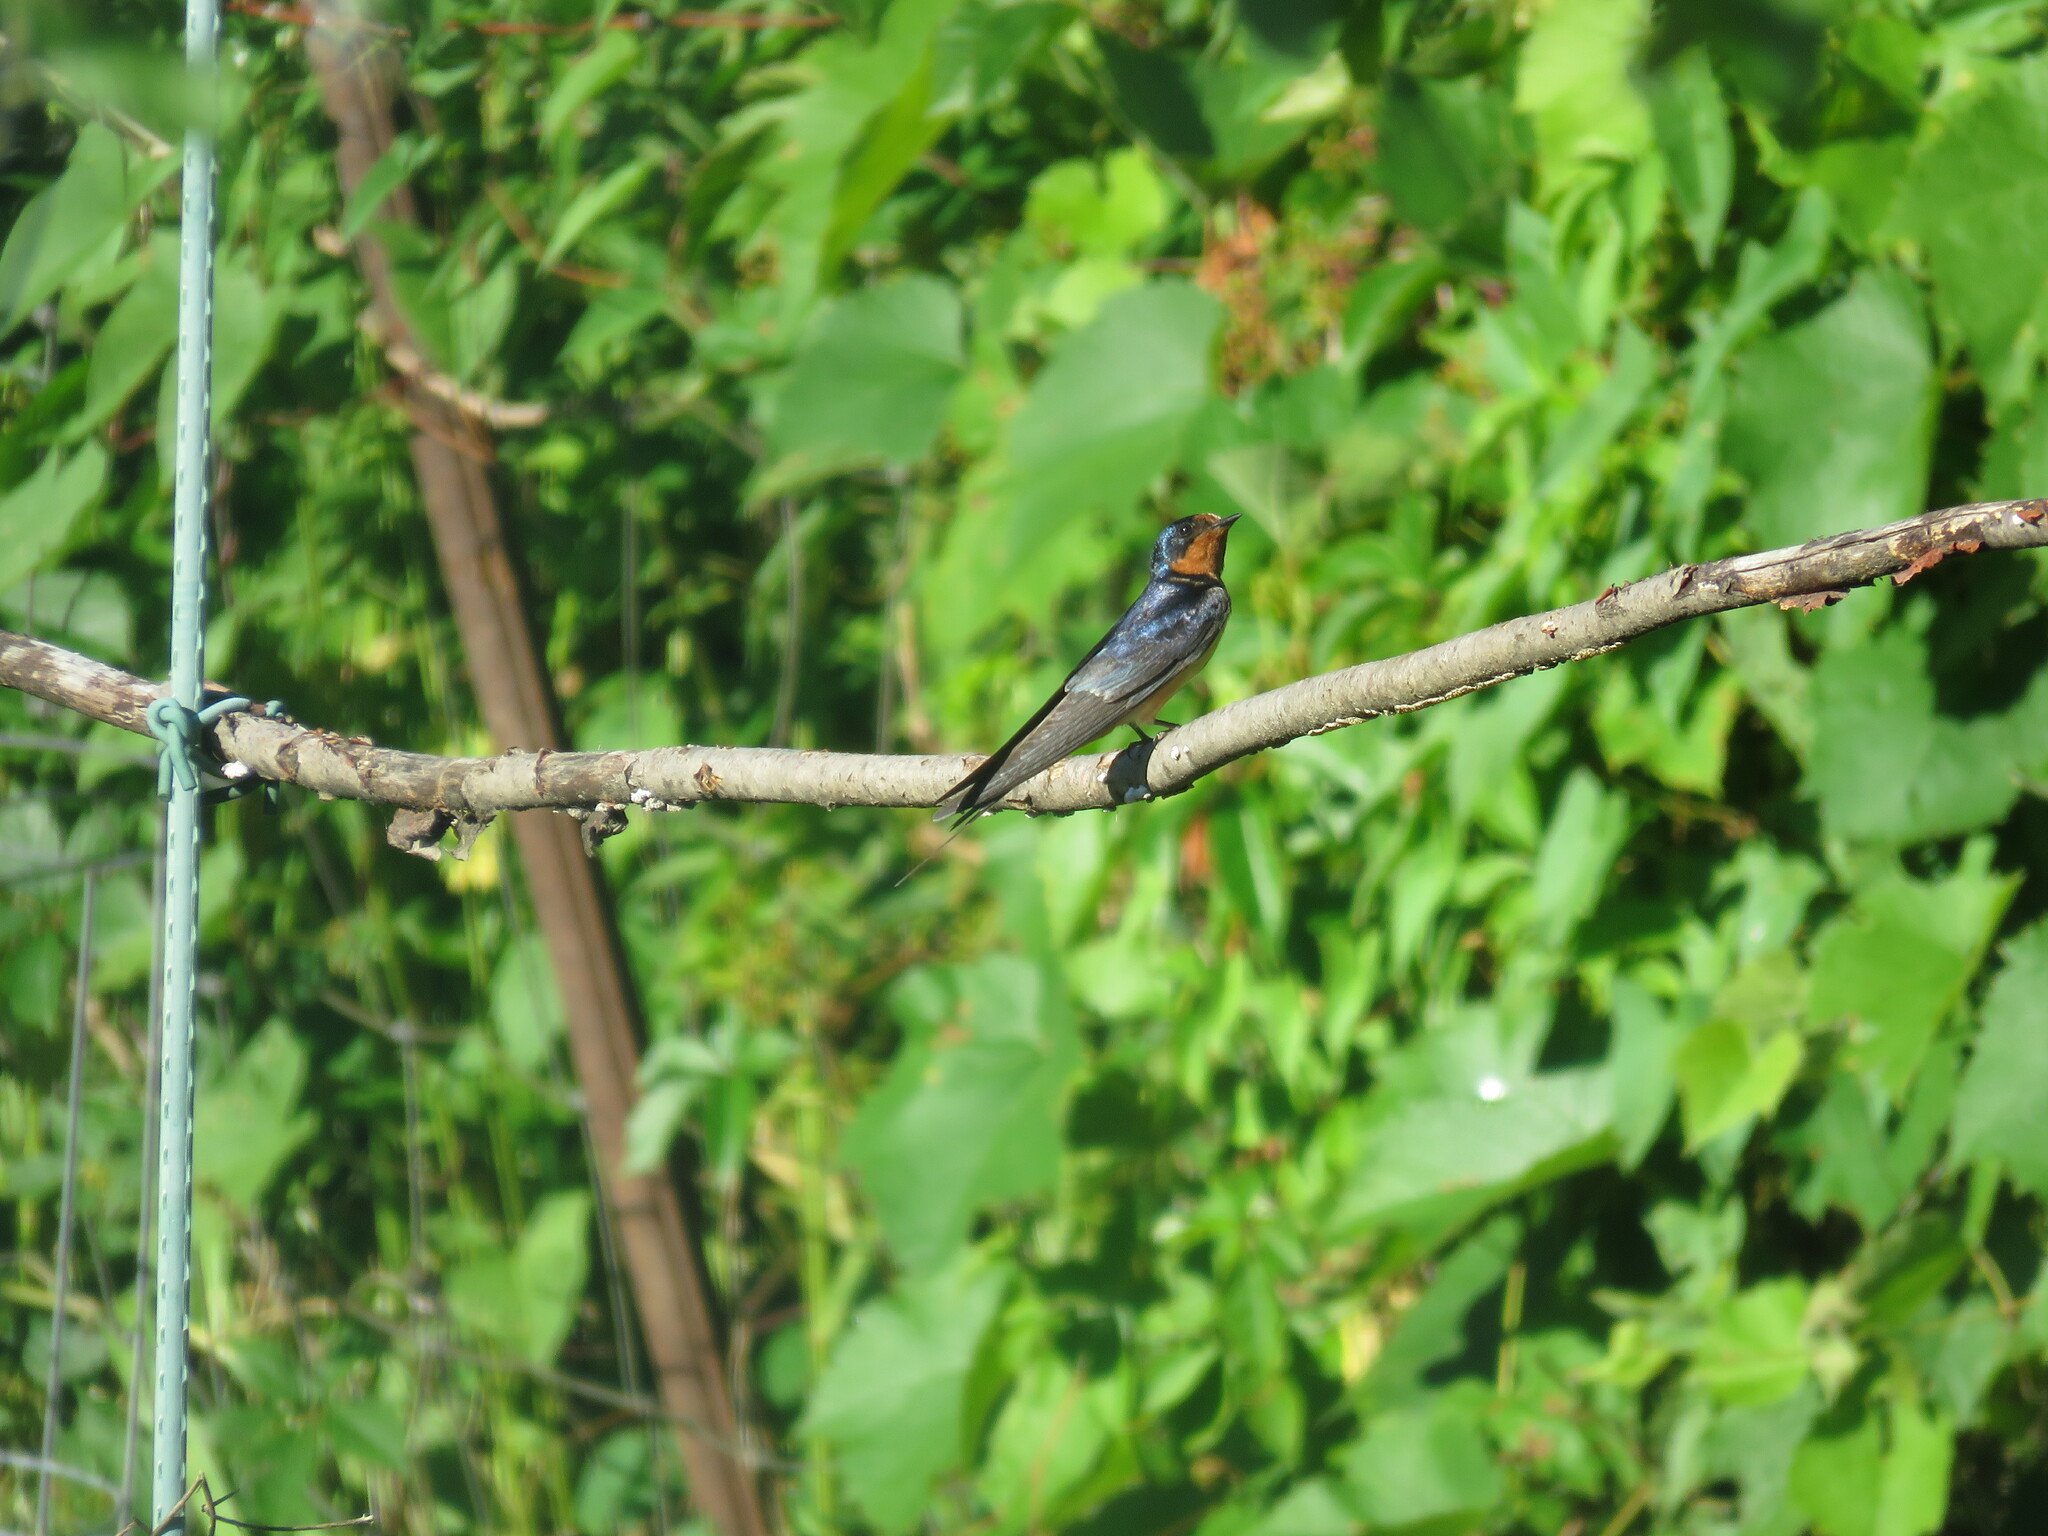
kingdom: Animalia
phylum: Chordata
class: Aves
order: Passeriformes
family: Hirundinidae
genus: Hirundo
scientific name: Hirundo rustica
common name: Barn swallow
